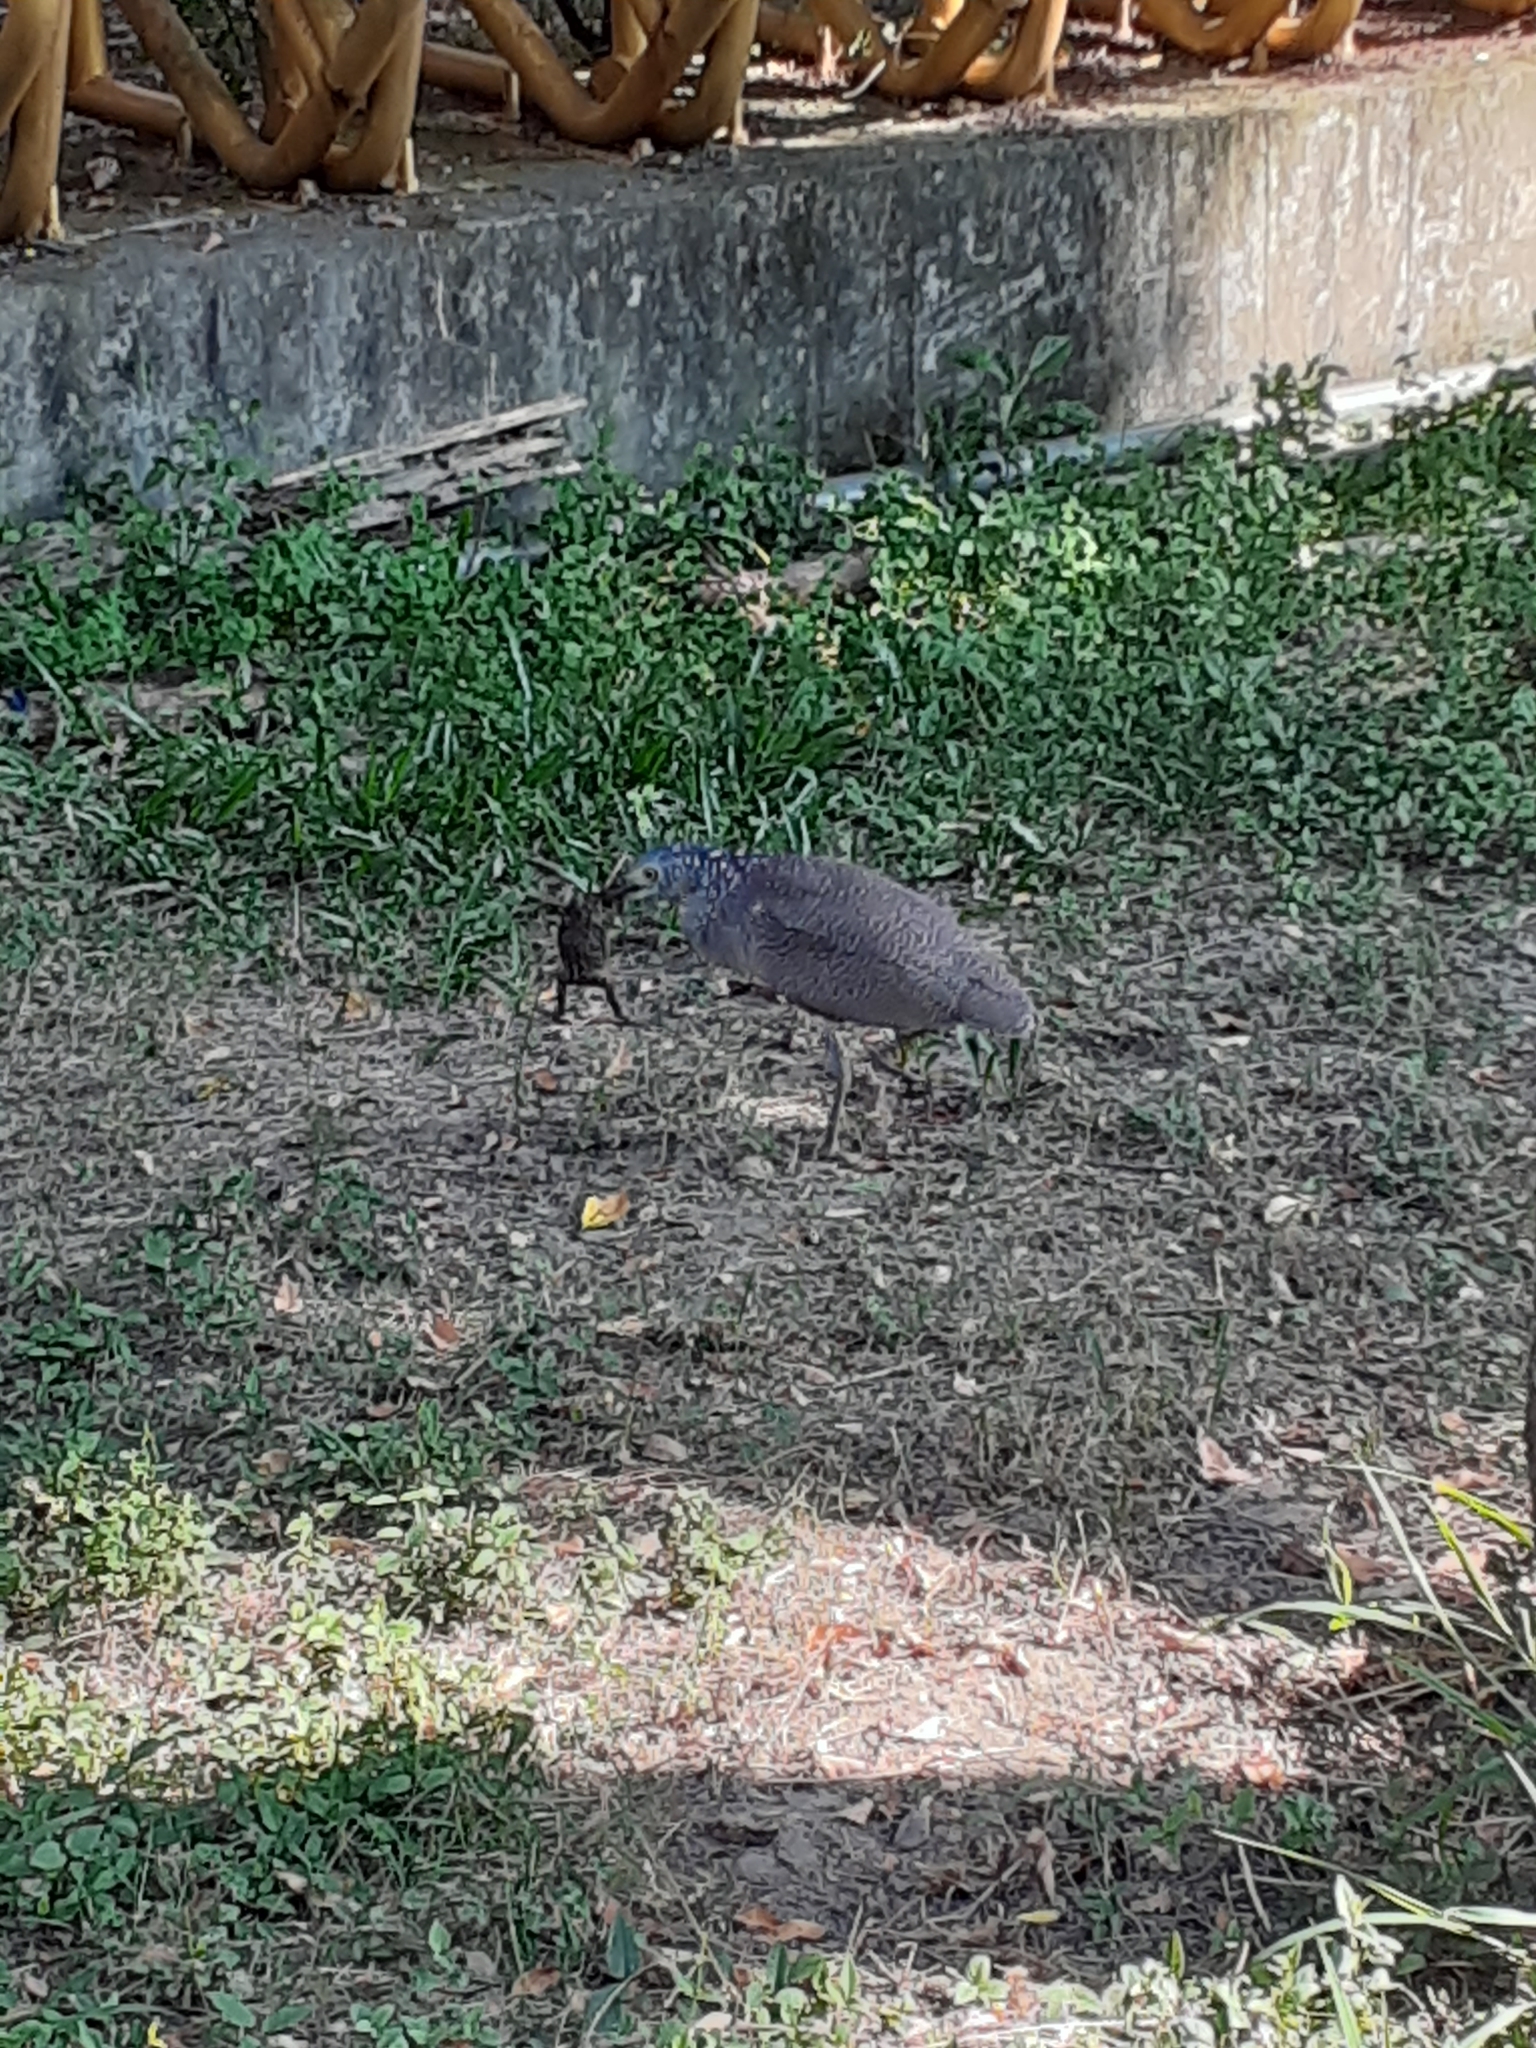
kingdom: Animalia
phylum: Chordata
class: Aves
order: Pelecaniformes
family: Ardeidae
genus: Gorsachius
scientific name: Gorsachius melanolophus
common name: Malayan night heron
